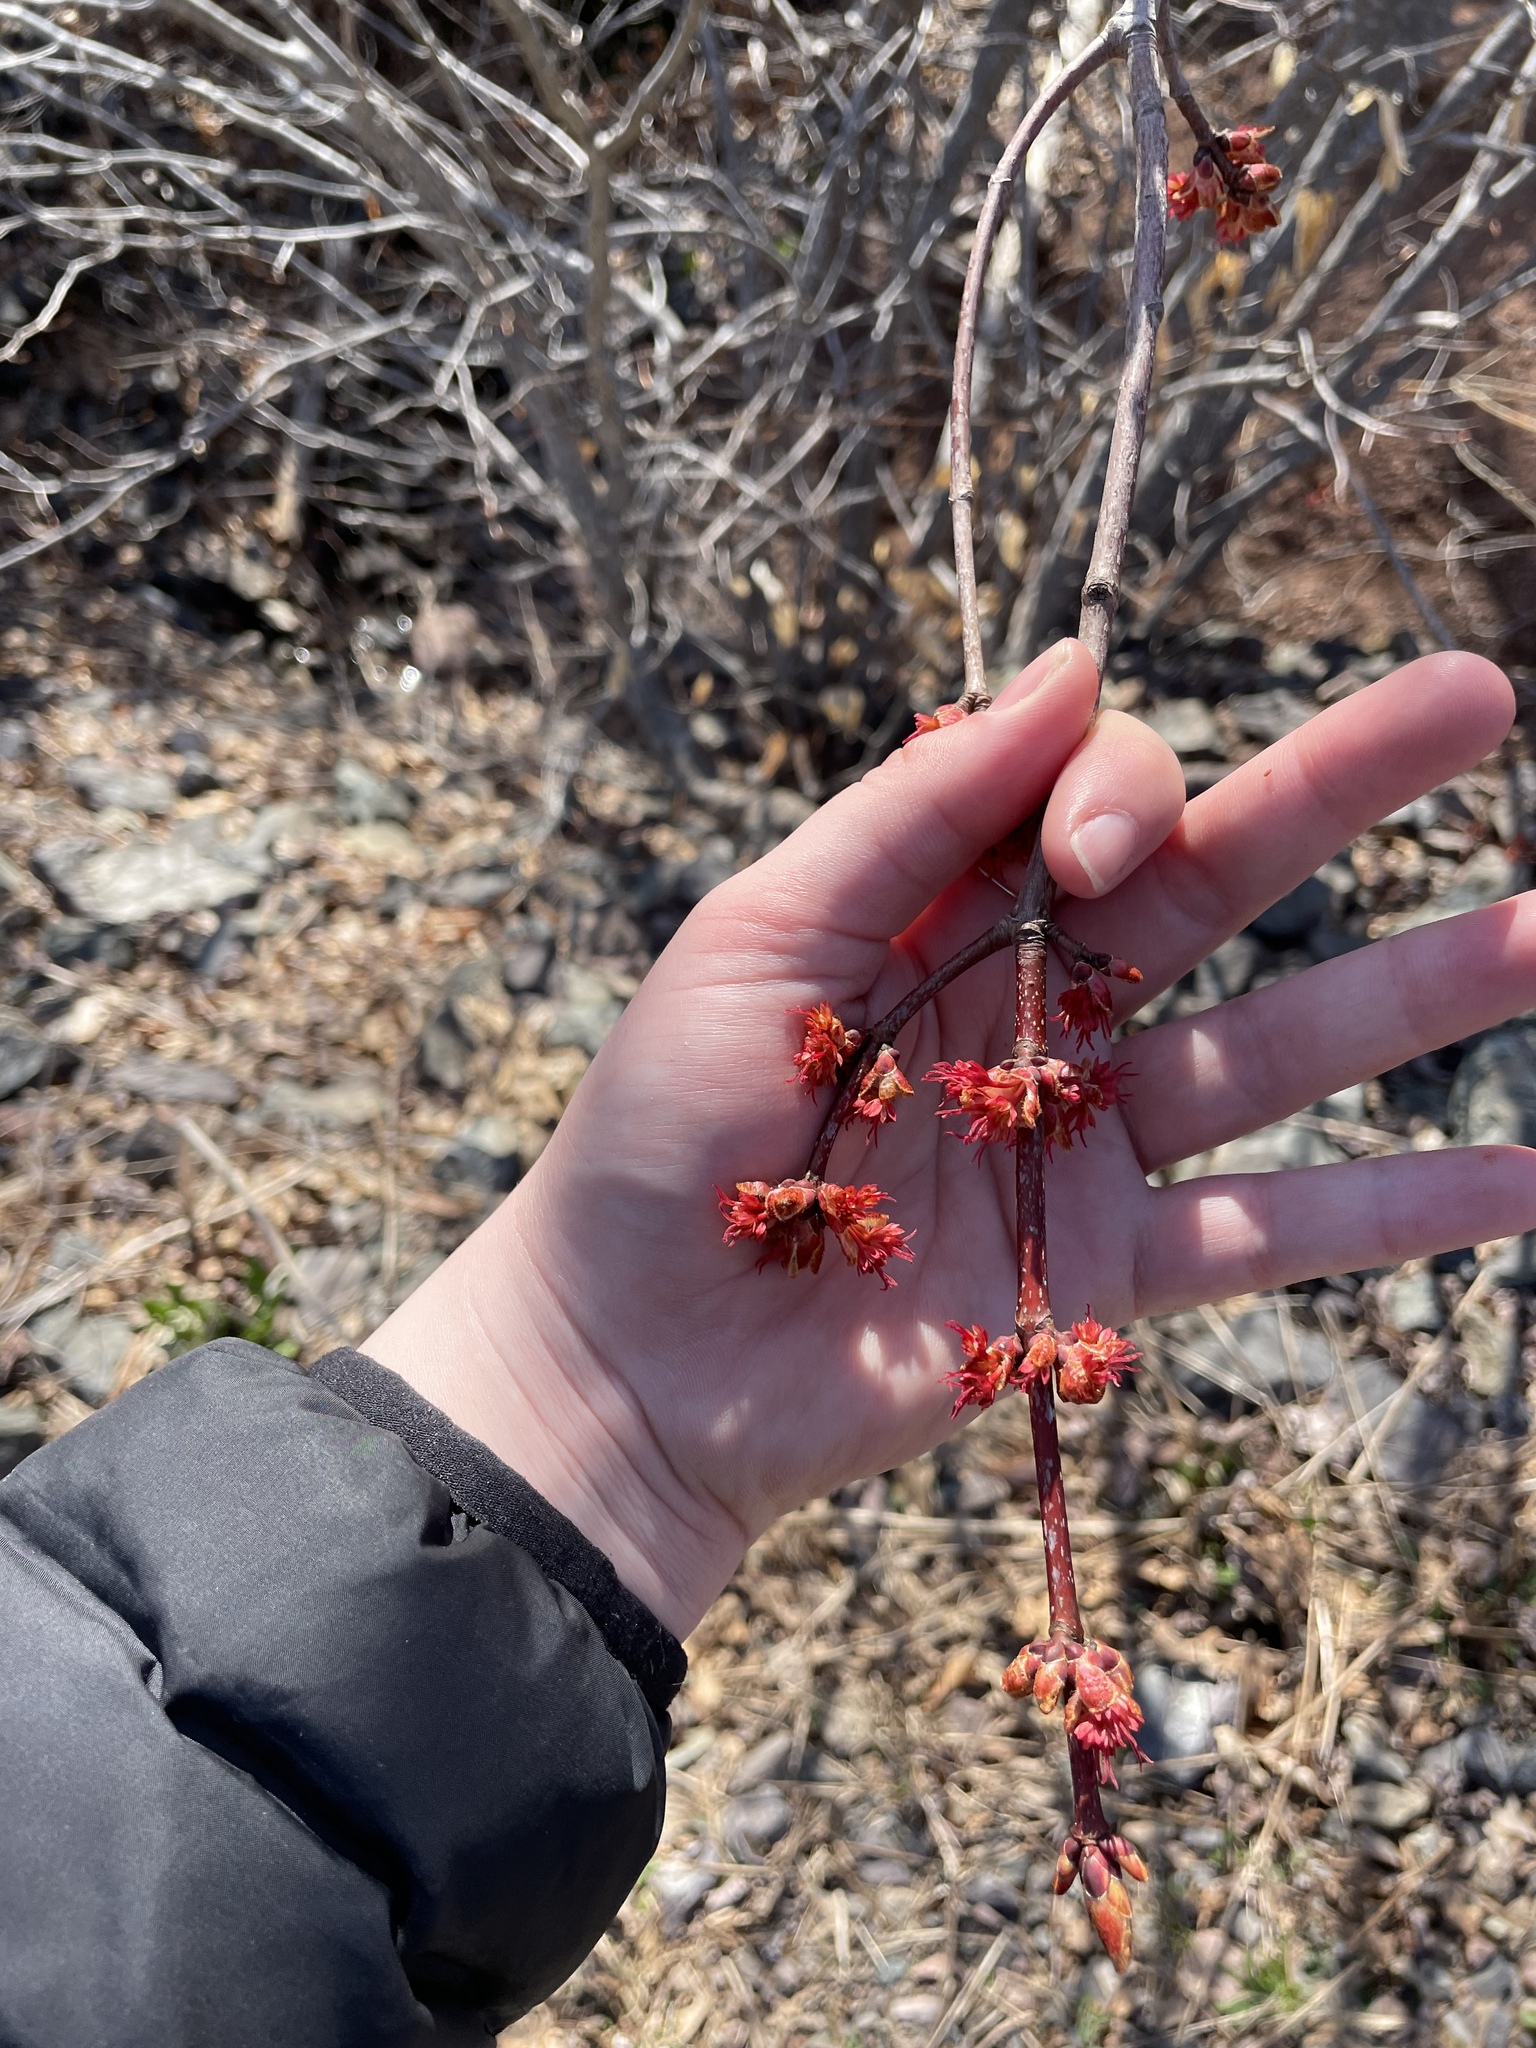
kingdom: Plantae
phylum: Tracheophyta
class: Magnoliopsida
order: Sapindales
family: Sapindaceae
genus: Acer
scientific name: Acer rubrum
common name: Red maple
